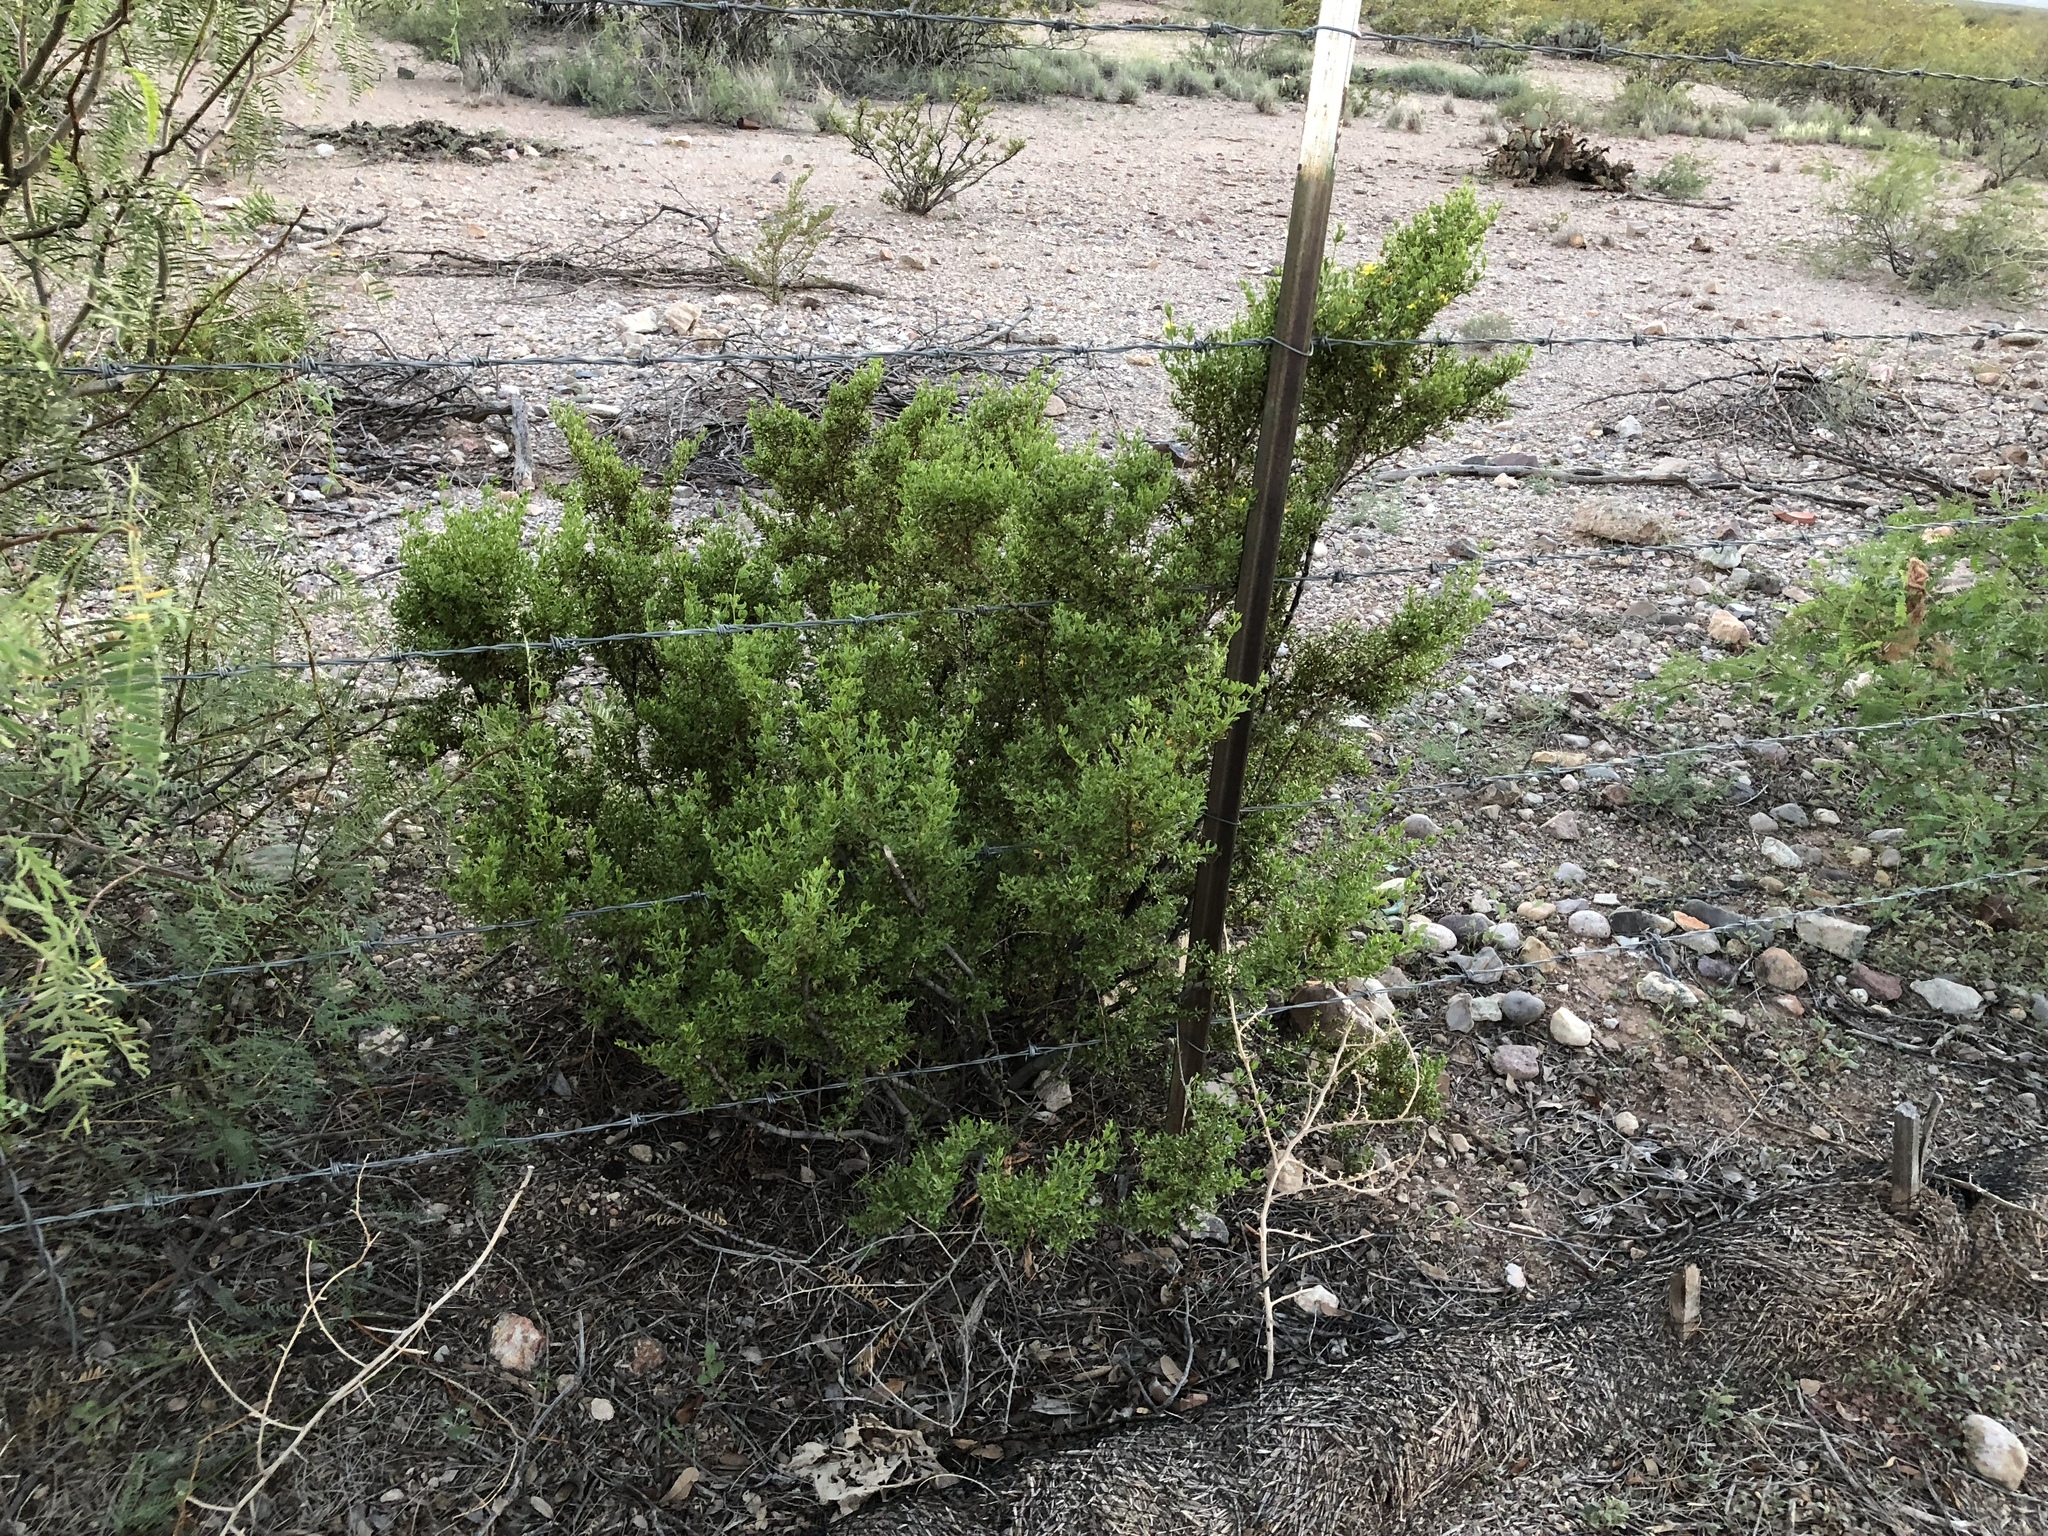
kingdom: Plantae
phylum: Tracheophyta
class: Magnoliopsida
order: Zygophyllales
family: Zygophyllaceae
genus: Larrea
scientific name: Larrea tridentata
